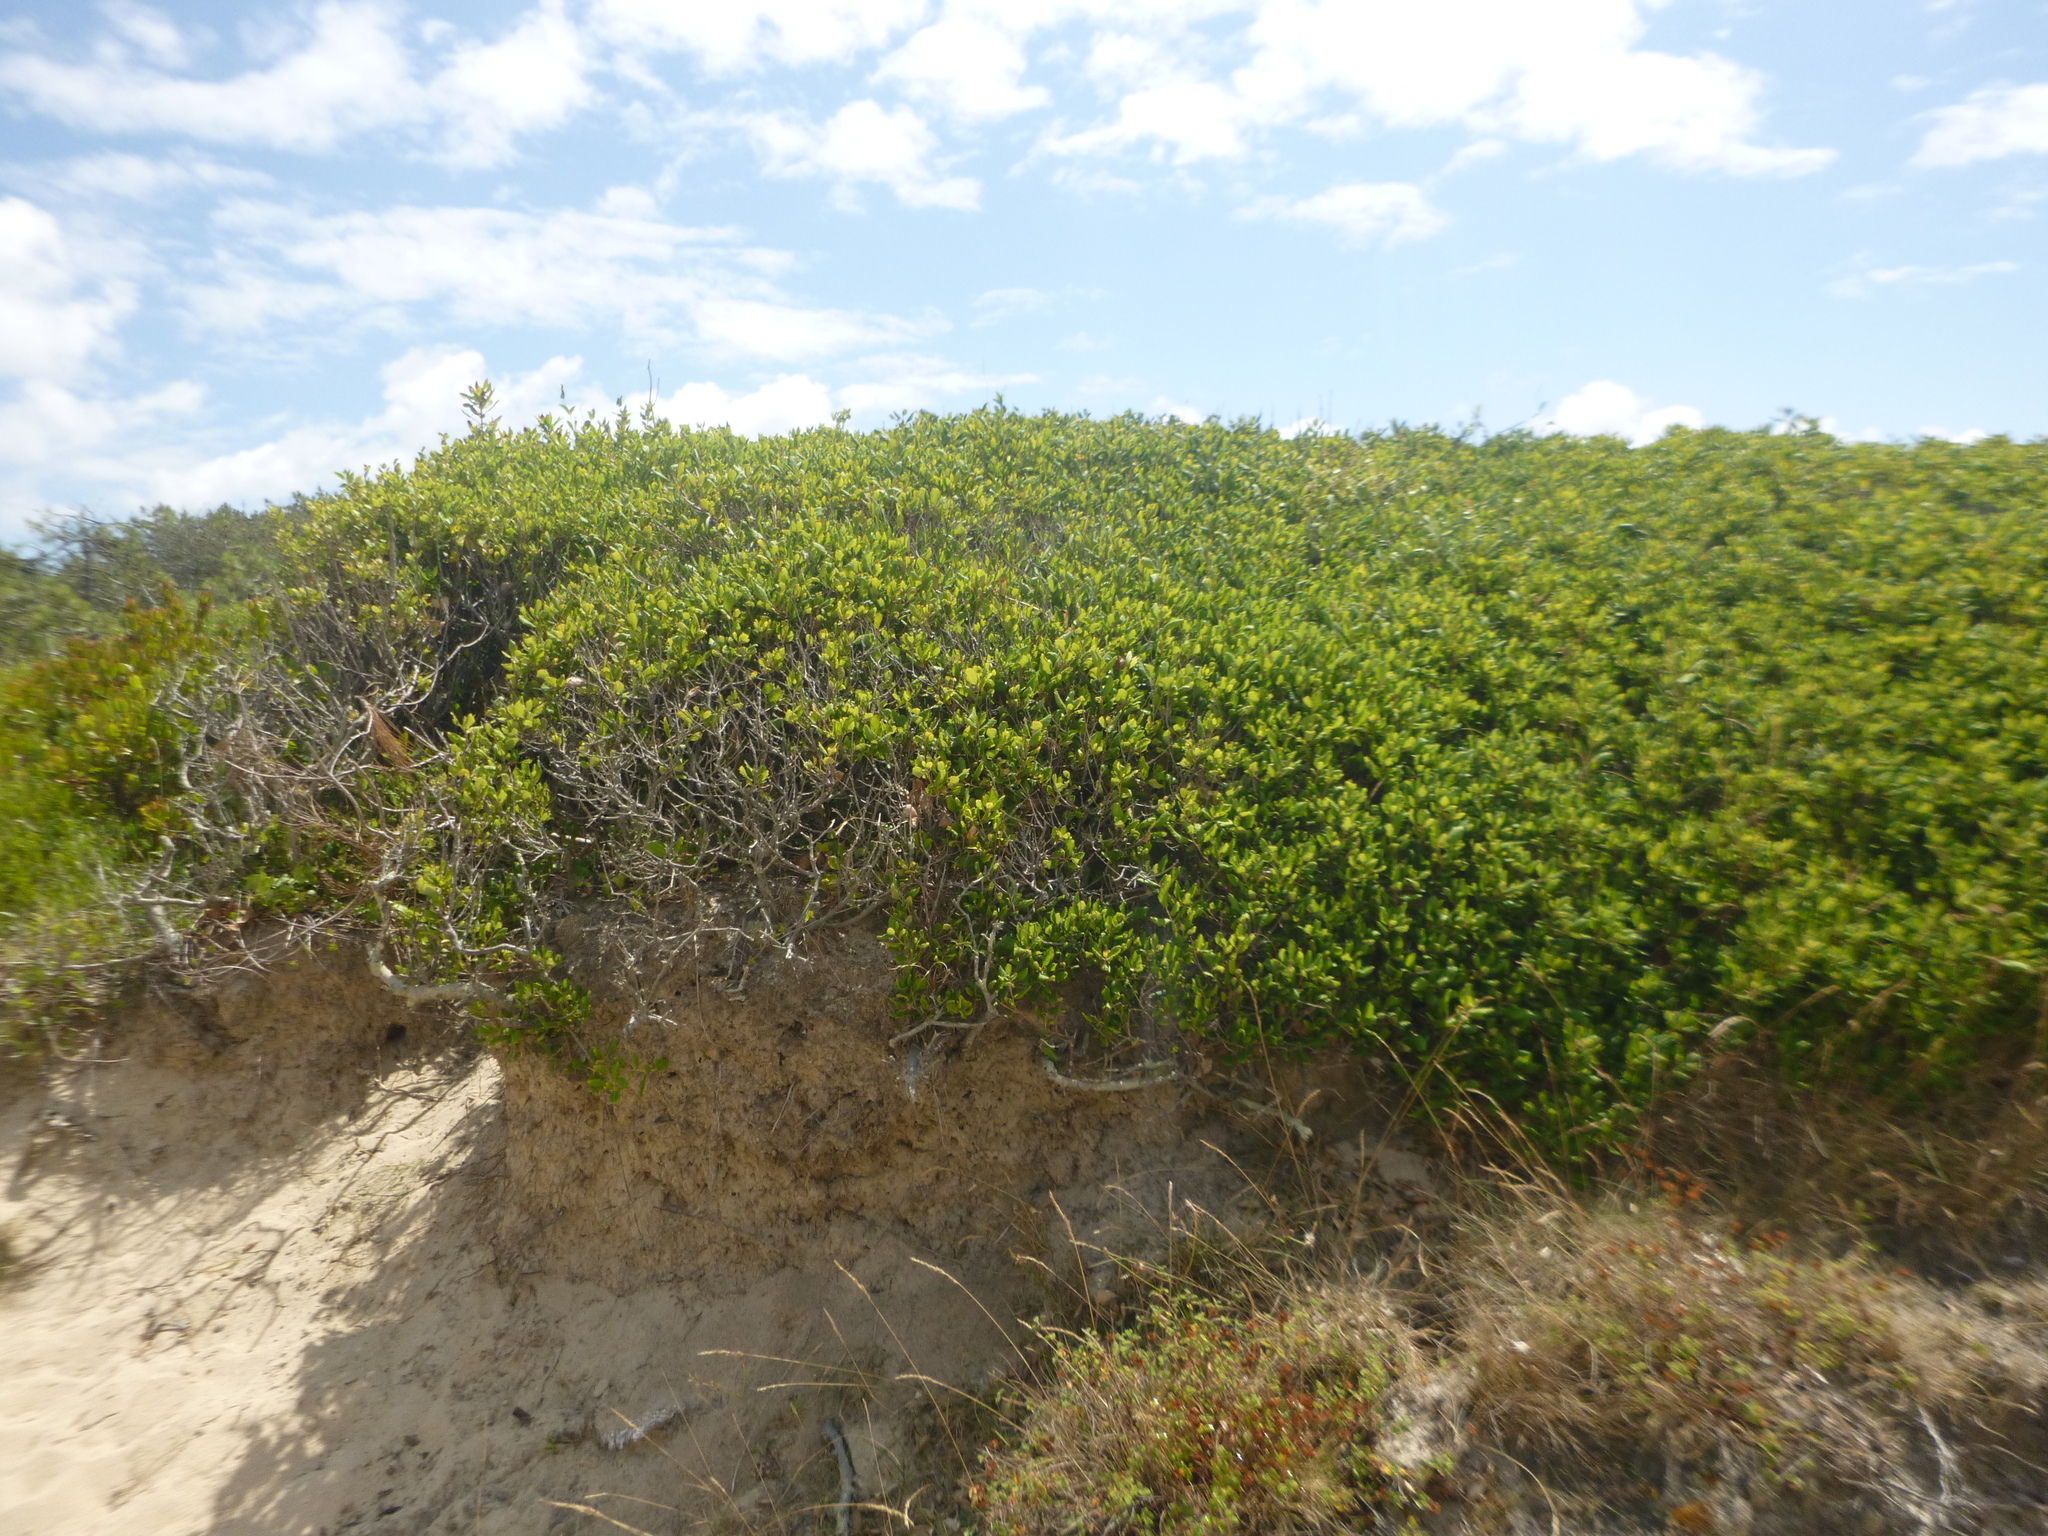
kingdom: Plantae
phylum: Tracheophyta
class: Magnoliopsida
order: Fagales
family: Fagaceae
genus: Quercus
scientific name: Quercus suber
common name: Cork oak
